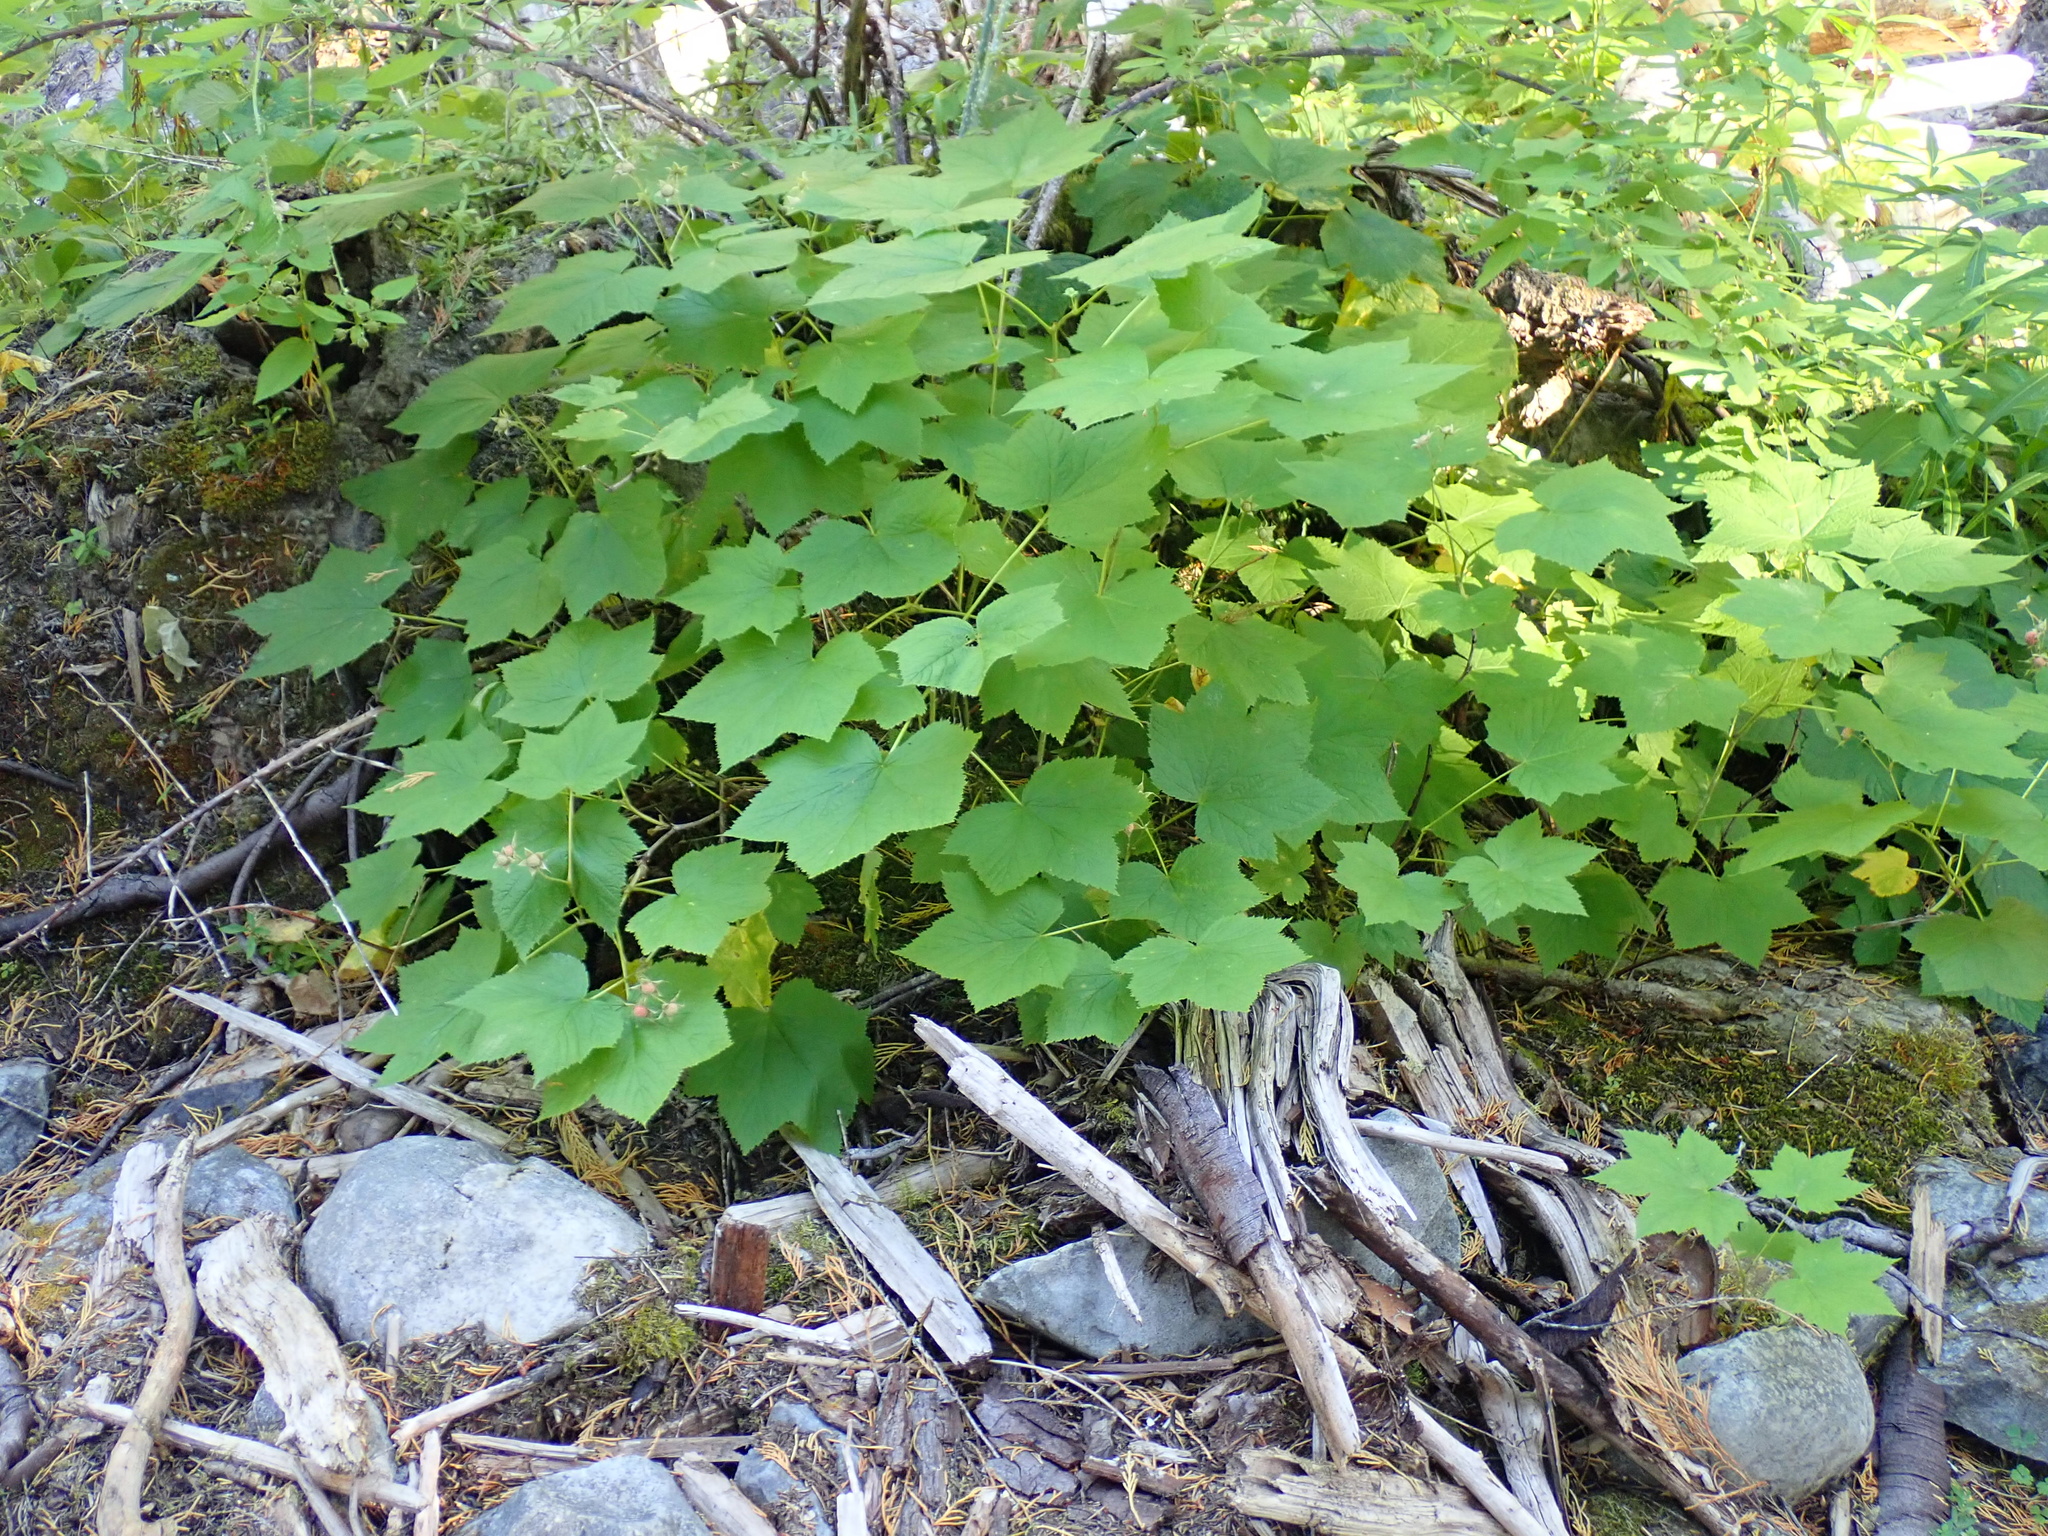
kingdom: Plantae
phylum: Tracheophyta
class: Magnoliopsida
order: Rosales
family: Rosaceae
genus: Rubus
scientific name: Rubus parviflorus
